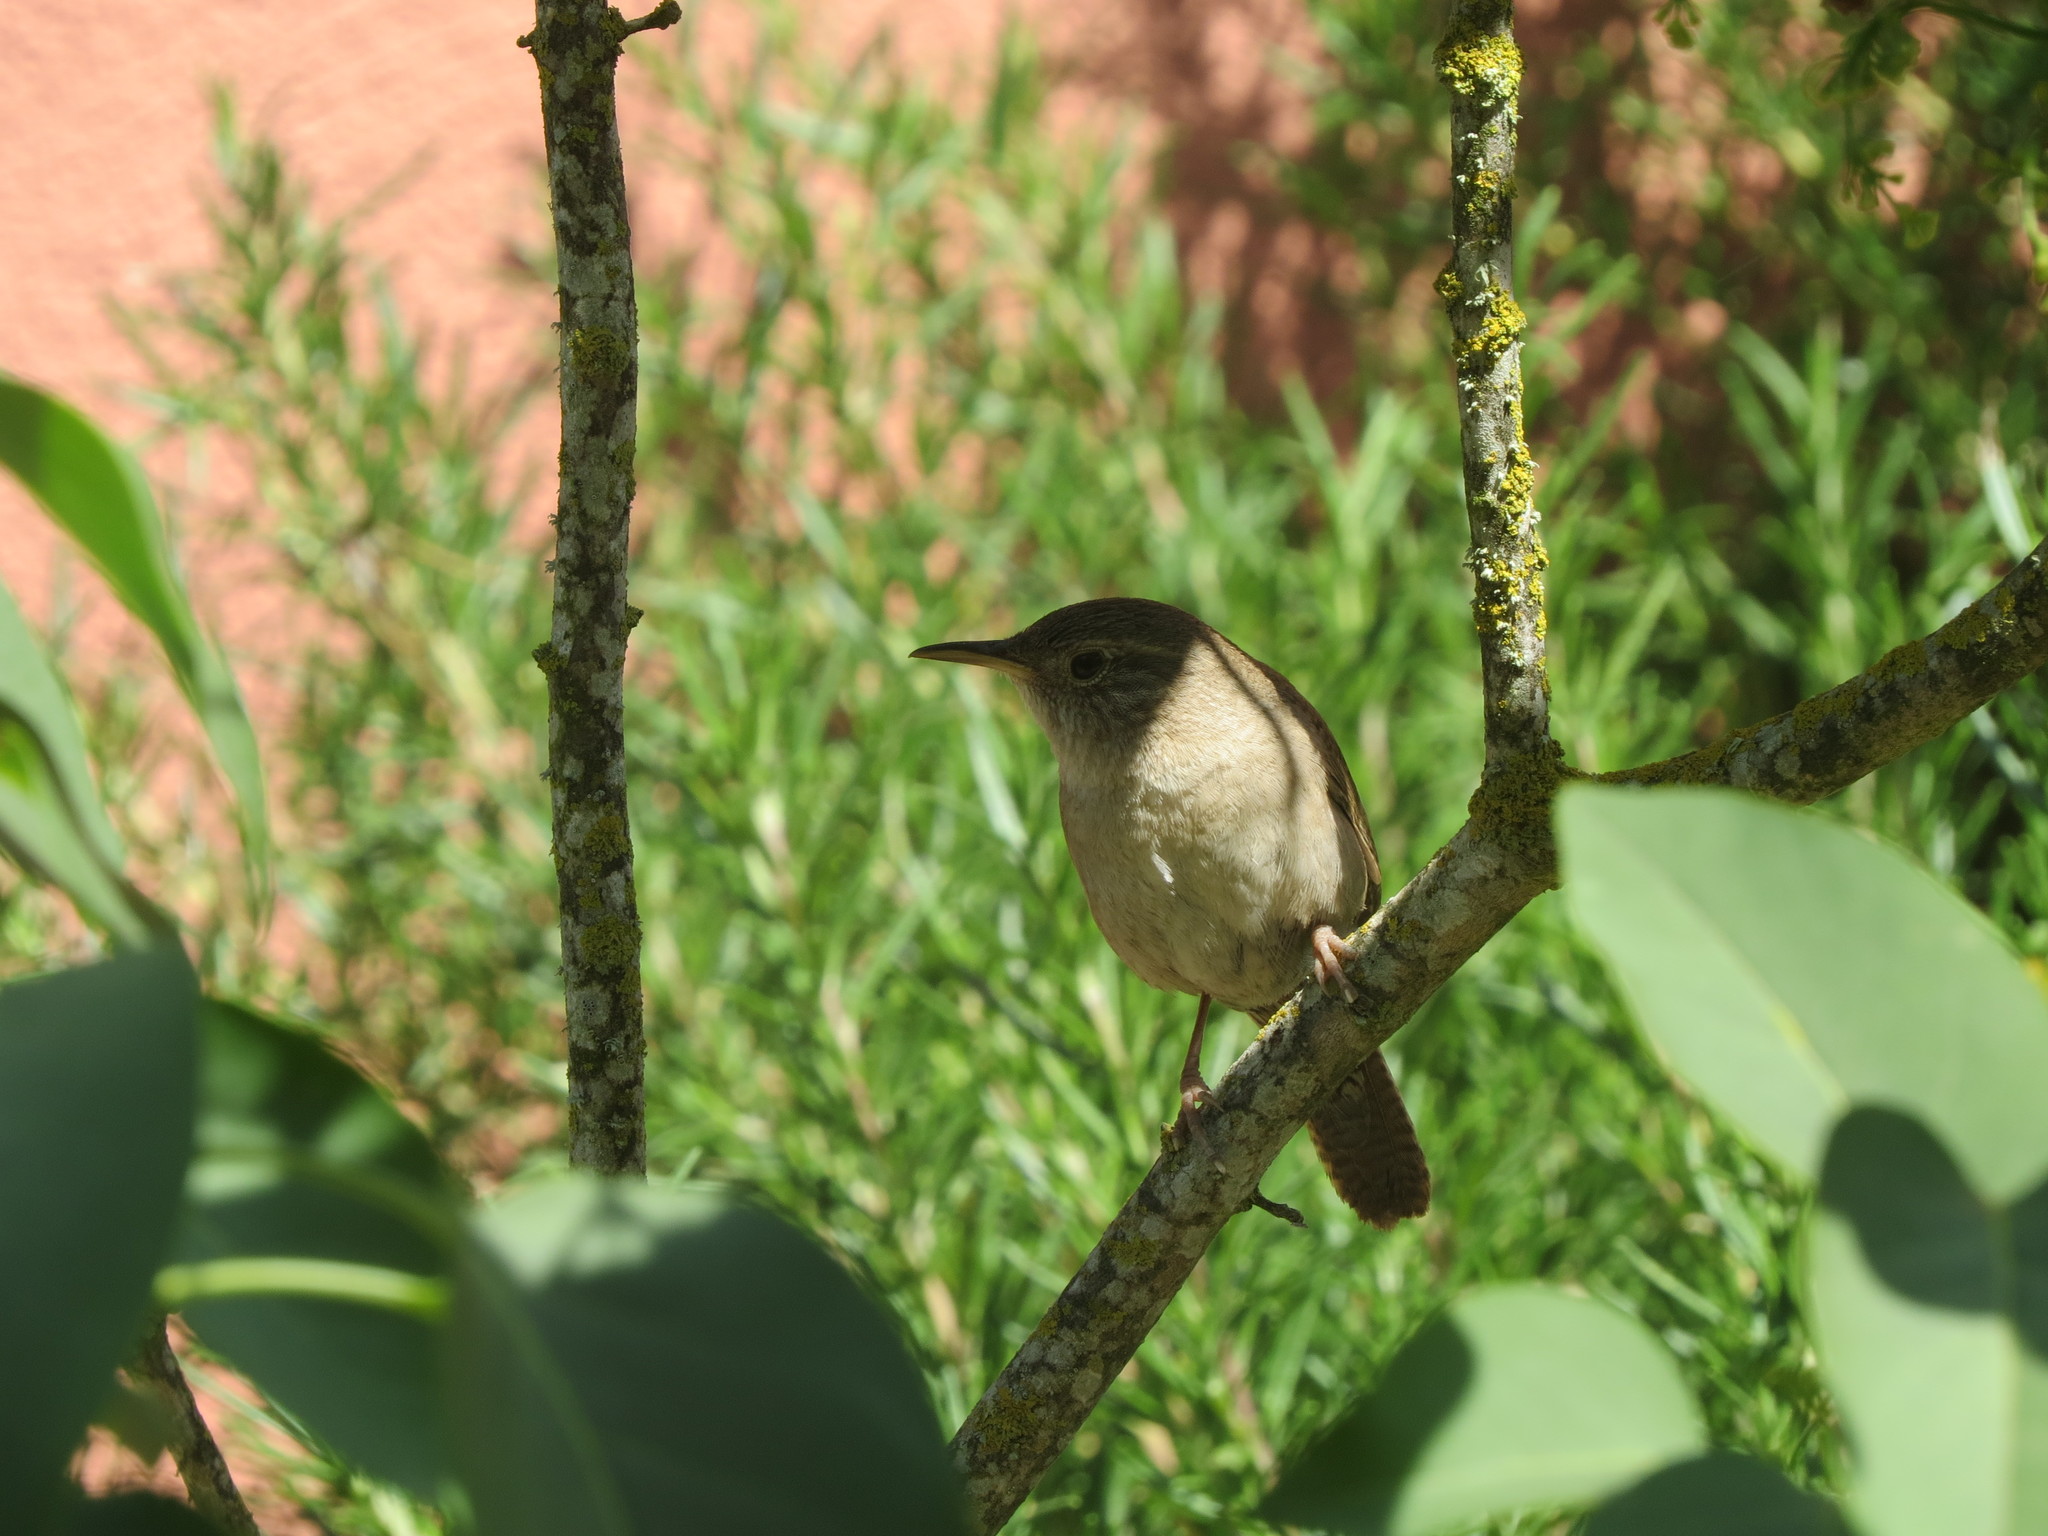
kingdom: Animalia
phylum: Chordata
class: Aves
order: Passeriformes
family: Troglodytidae
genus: Troglodytes
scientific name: Troglodytes aedon
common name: House wren
